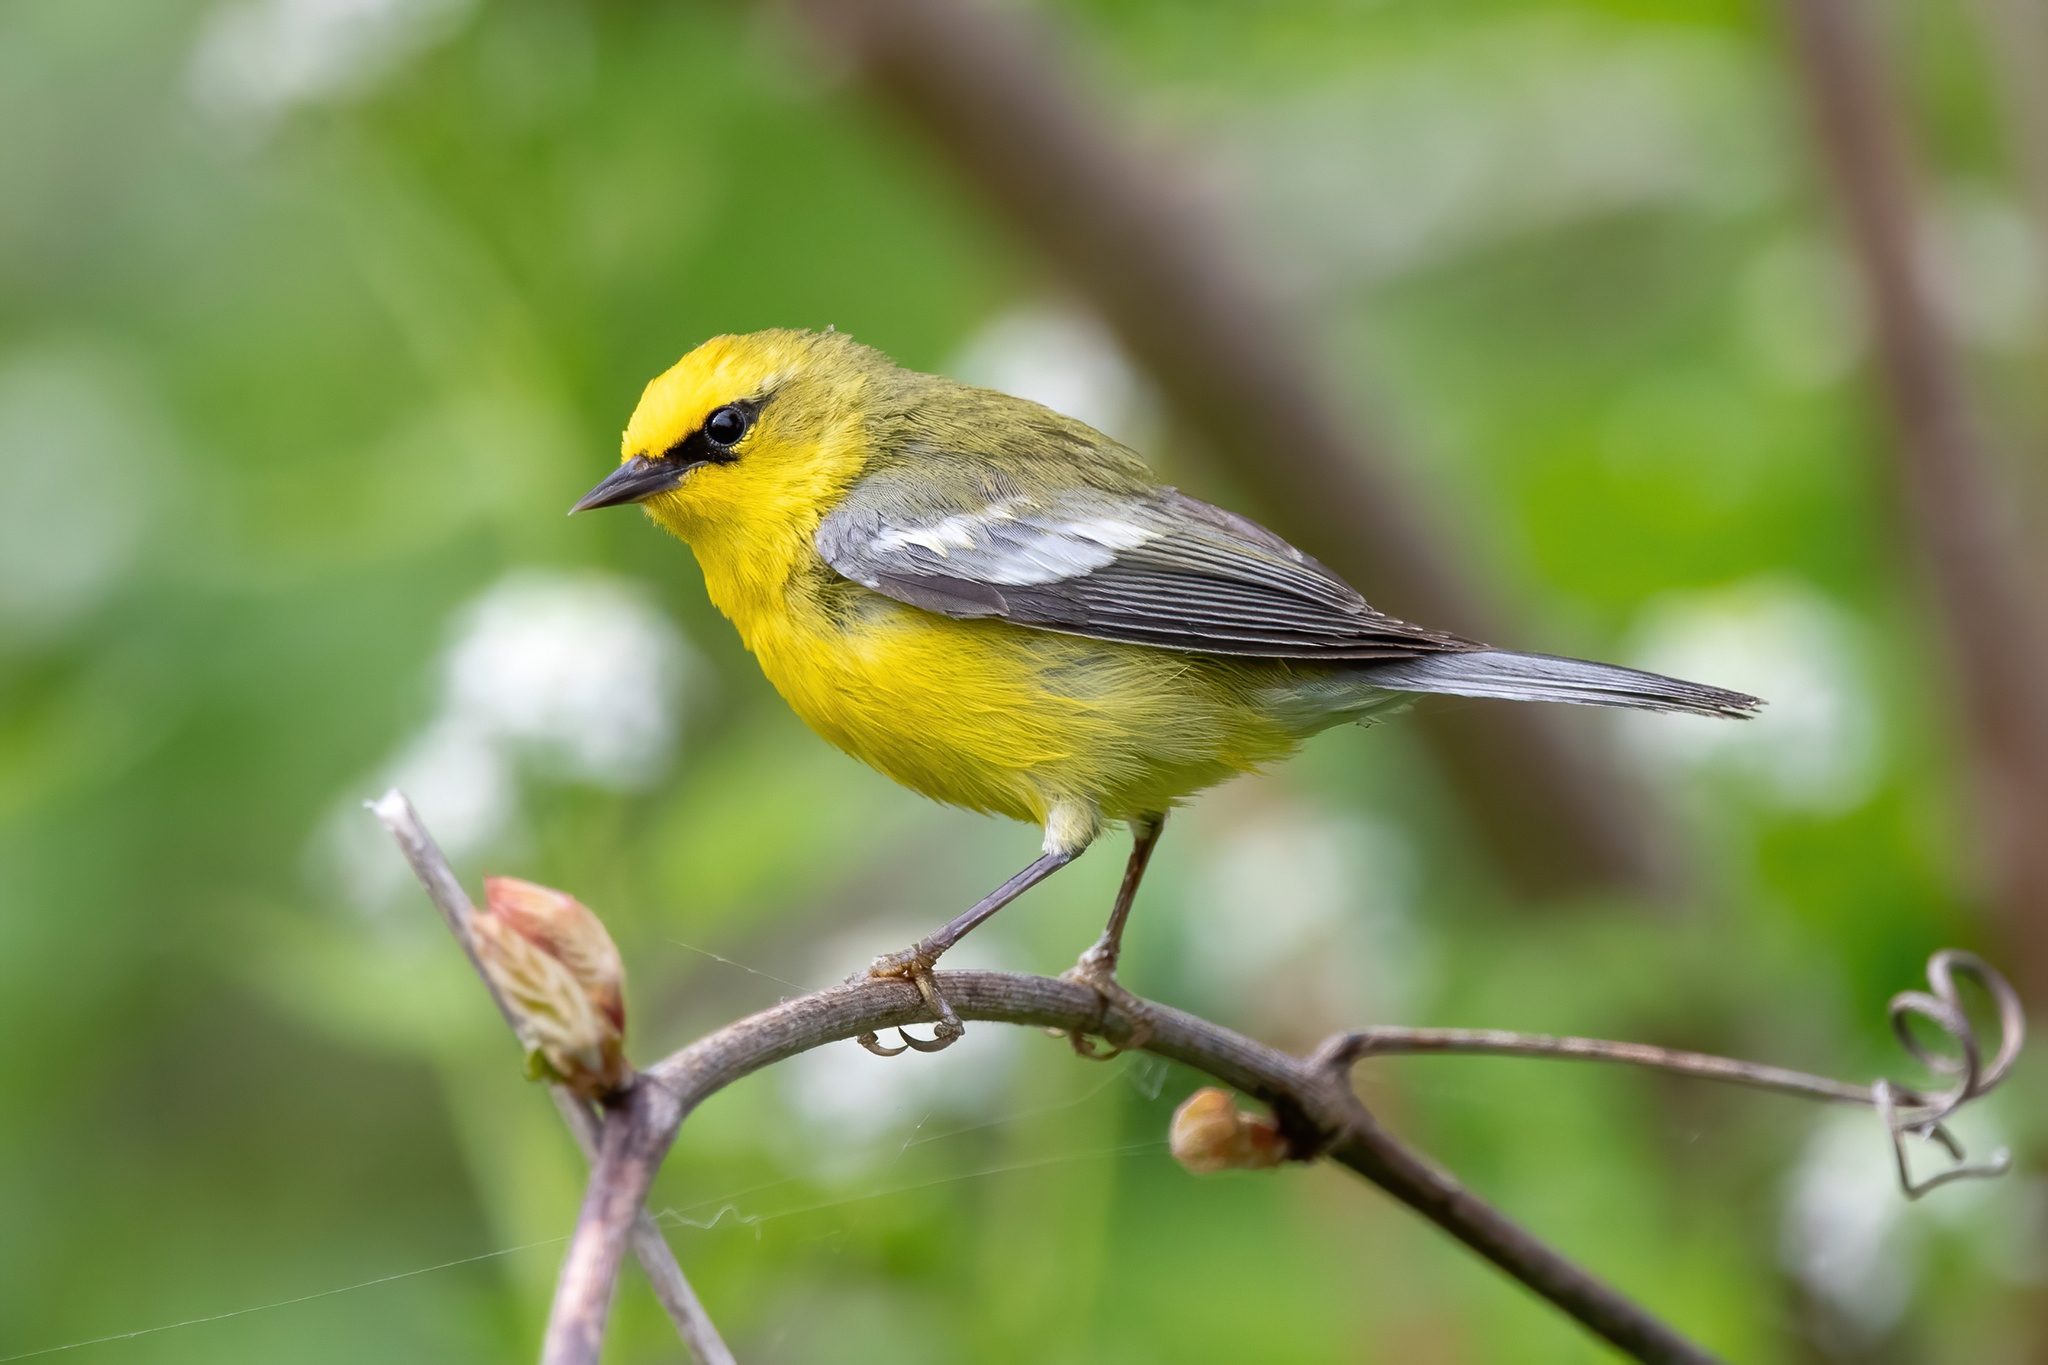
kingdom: Animalia
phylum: Chordata
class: Aves
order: Passeriformes
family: Parulidae
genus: Vermivora
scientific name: Vermivora cyanoptera
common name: Blue-winged warbler
